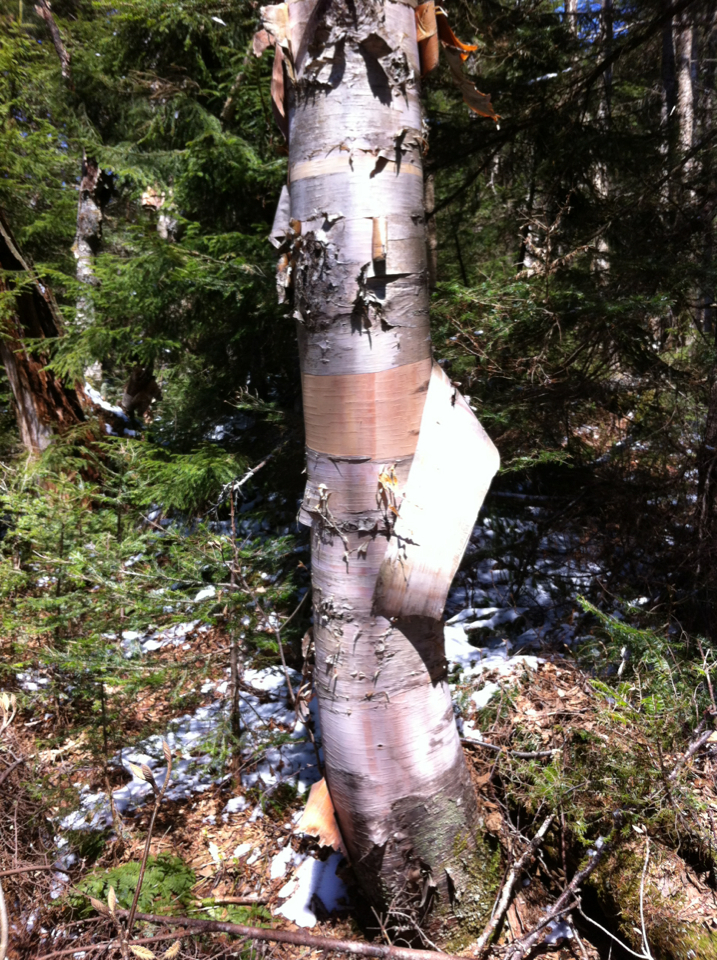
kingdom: Plantae
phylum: Tracheophyta
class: Magnoliopsida
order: Fagales
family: Betulaceae
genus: Betula
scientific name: Betula cordifolia
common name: Mountain white birch
